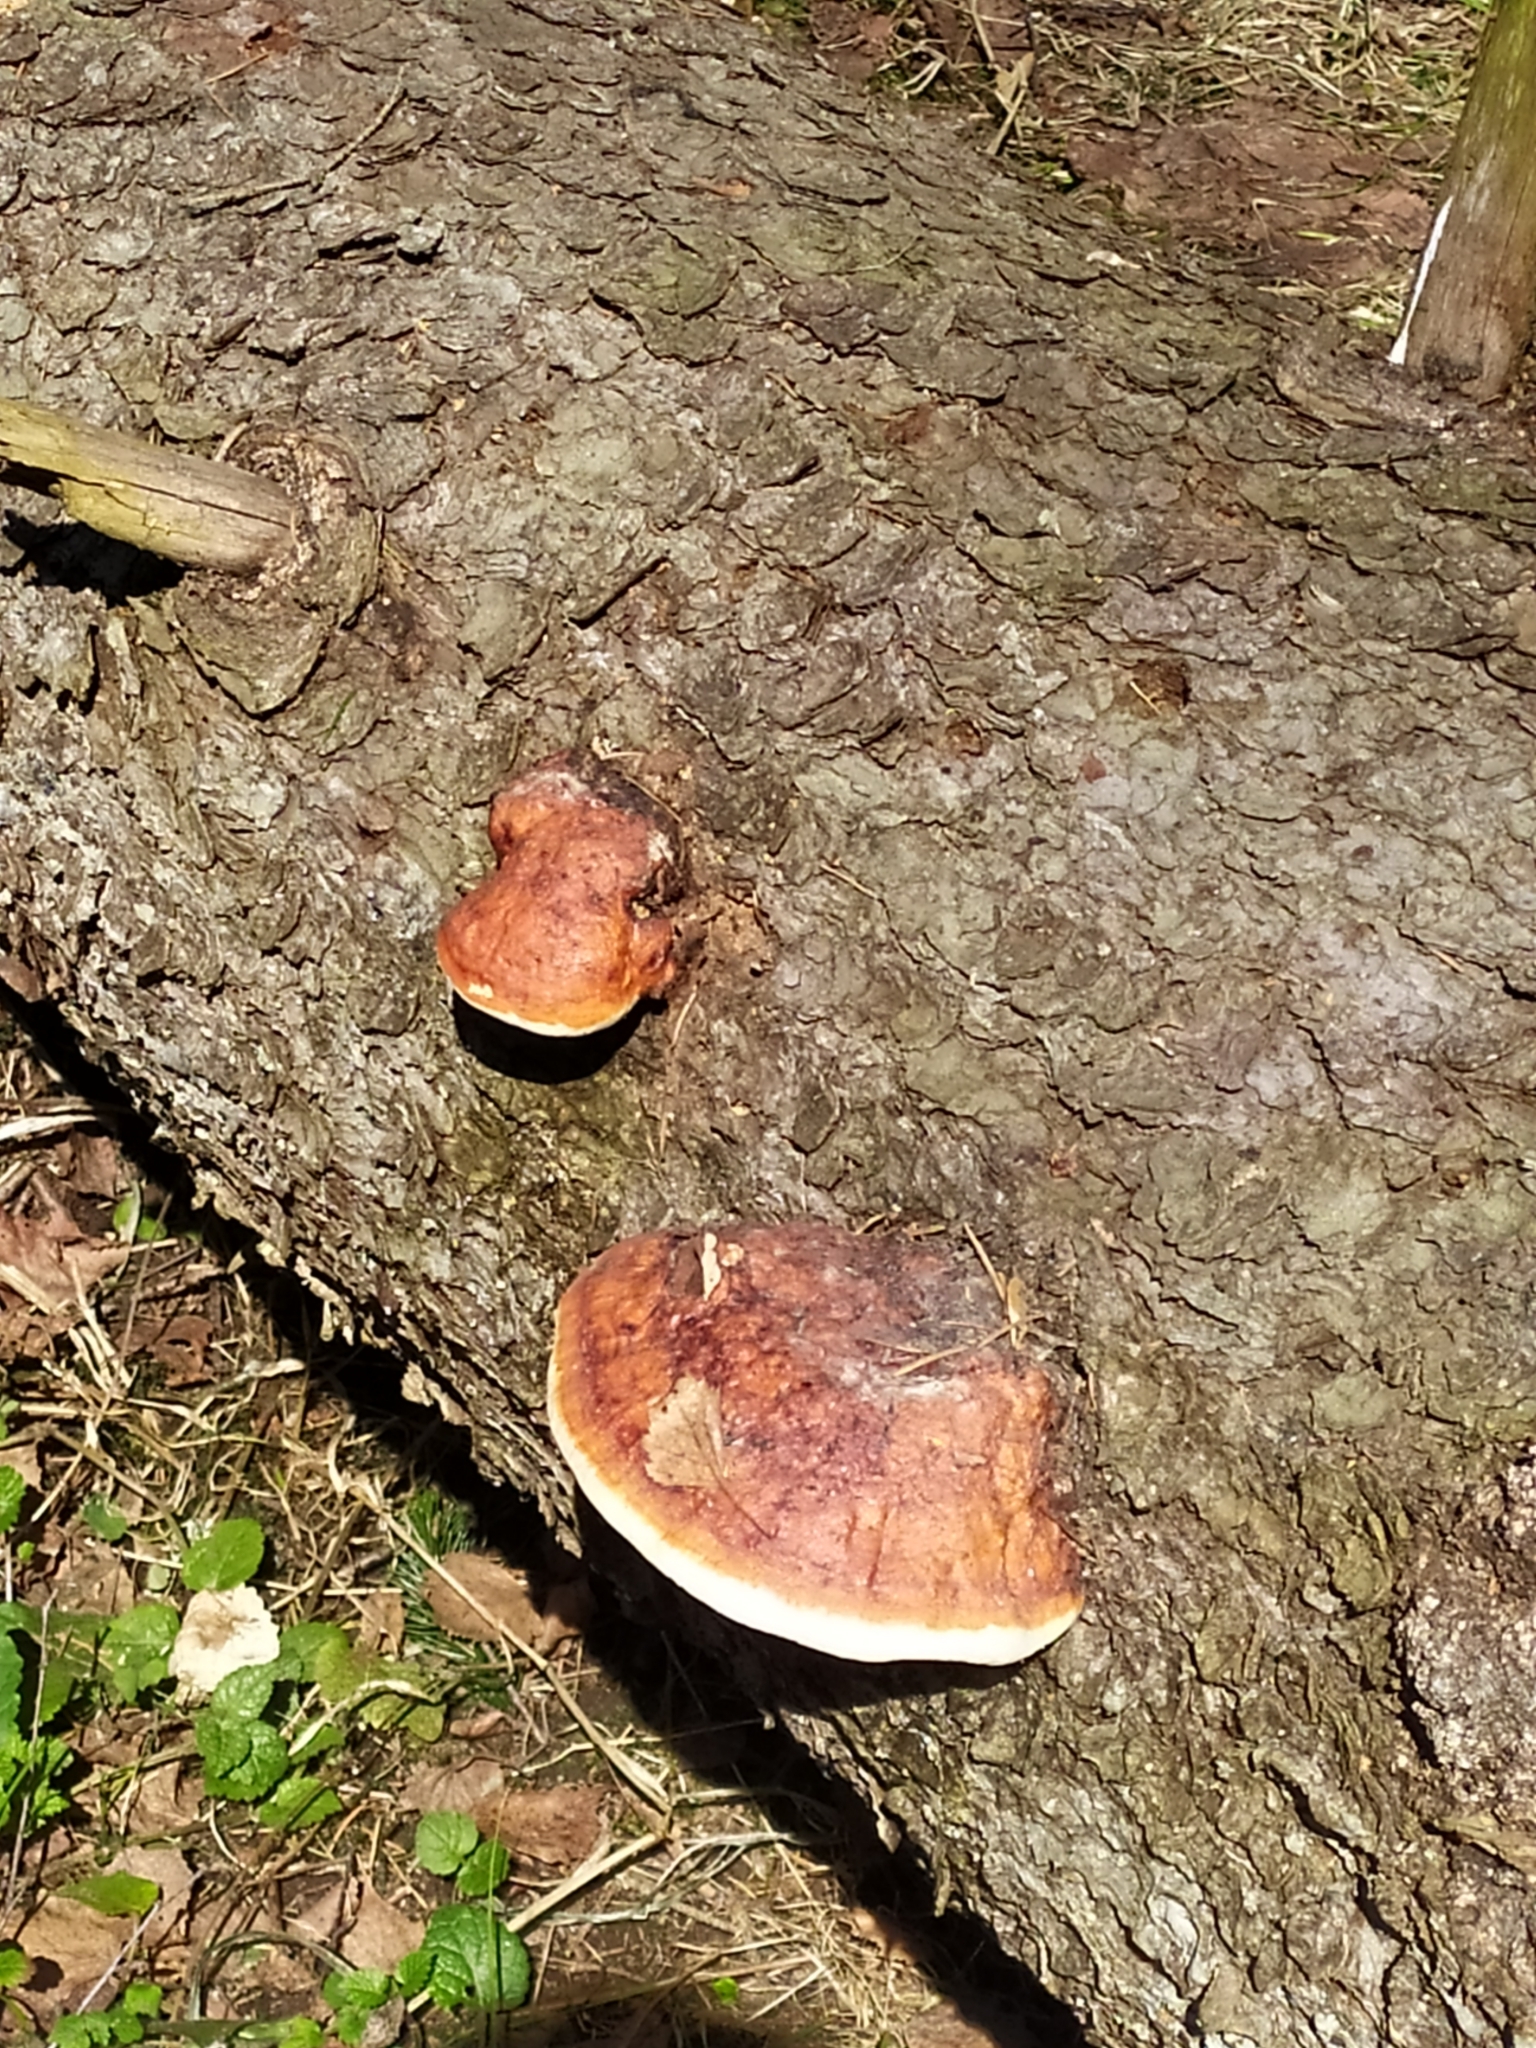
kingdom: Fungi
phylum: Basidiomycota
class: Agaricomycetes
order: Polyporales
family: Fomitopsidaceae
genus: Fomitopsis
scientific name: Fomitopsis pinicola
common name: Red-belted bracket
